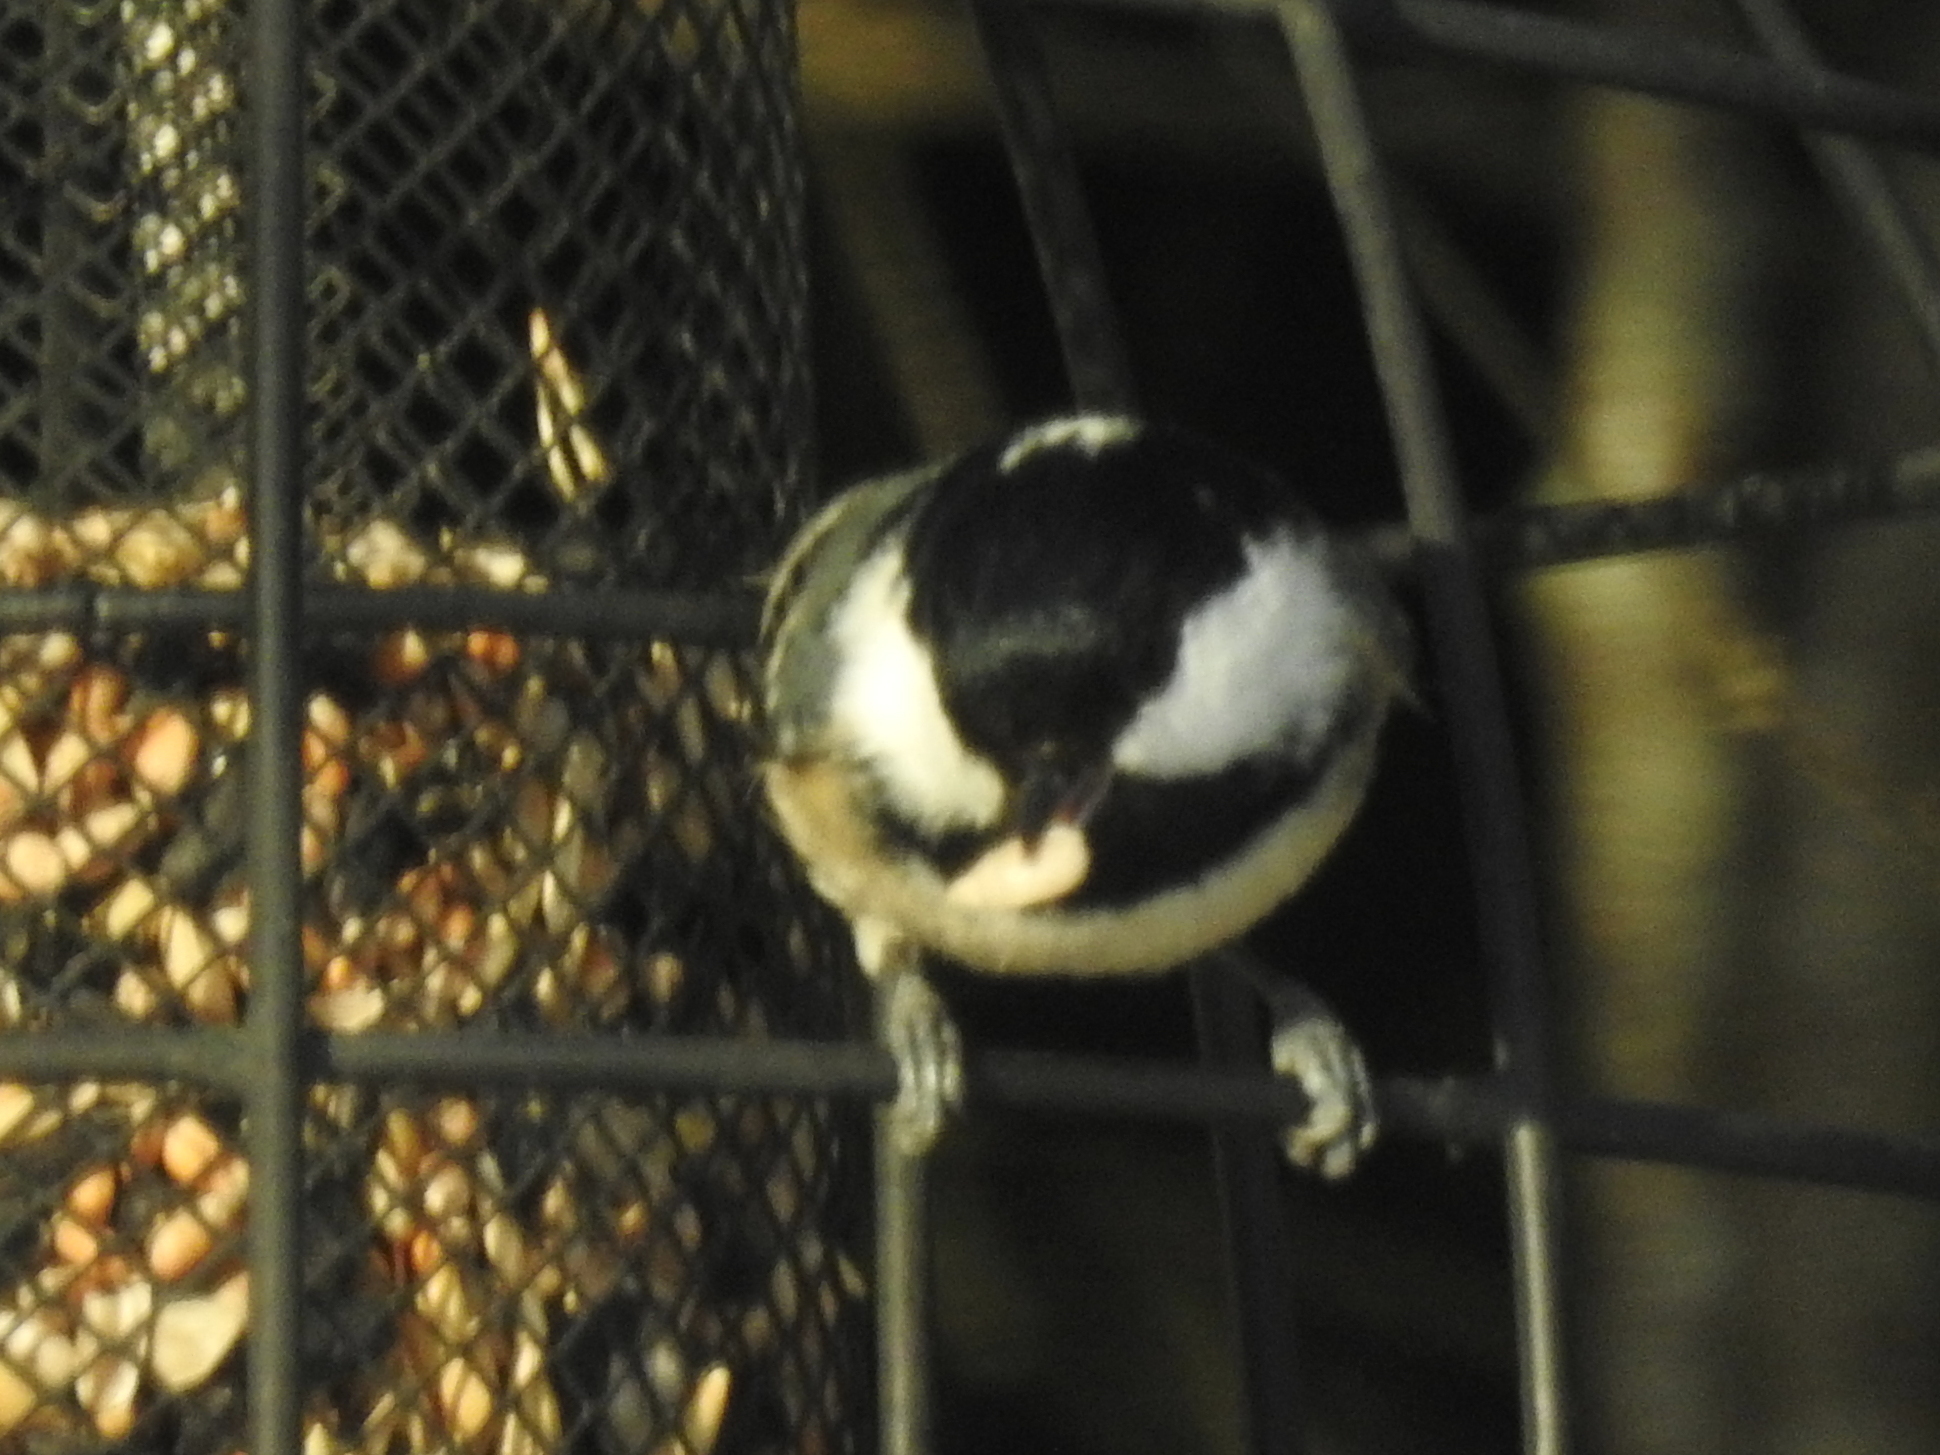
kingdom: Animalia
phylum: Chordata
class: Aves
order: Passeriformes
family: Paridae
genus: Periparus
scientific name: Periparus ater
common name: Coal tit
